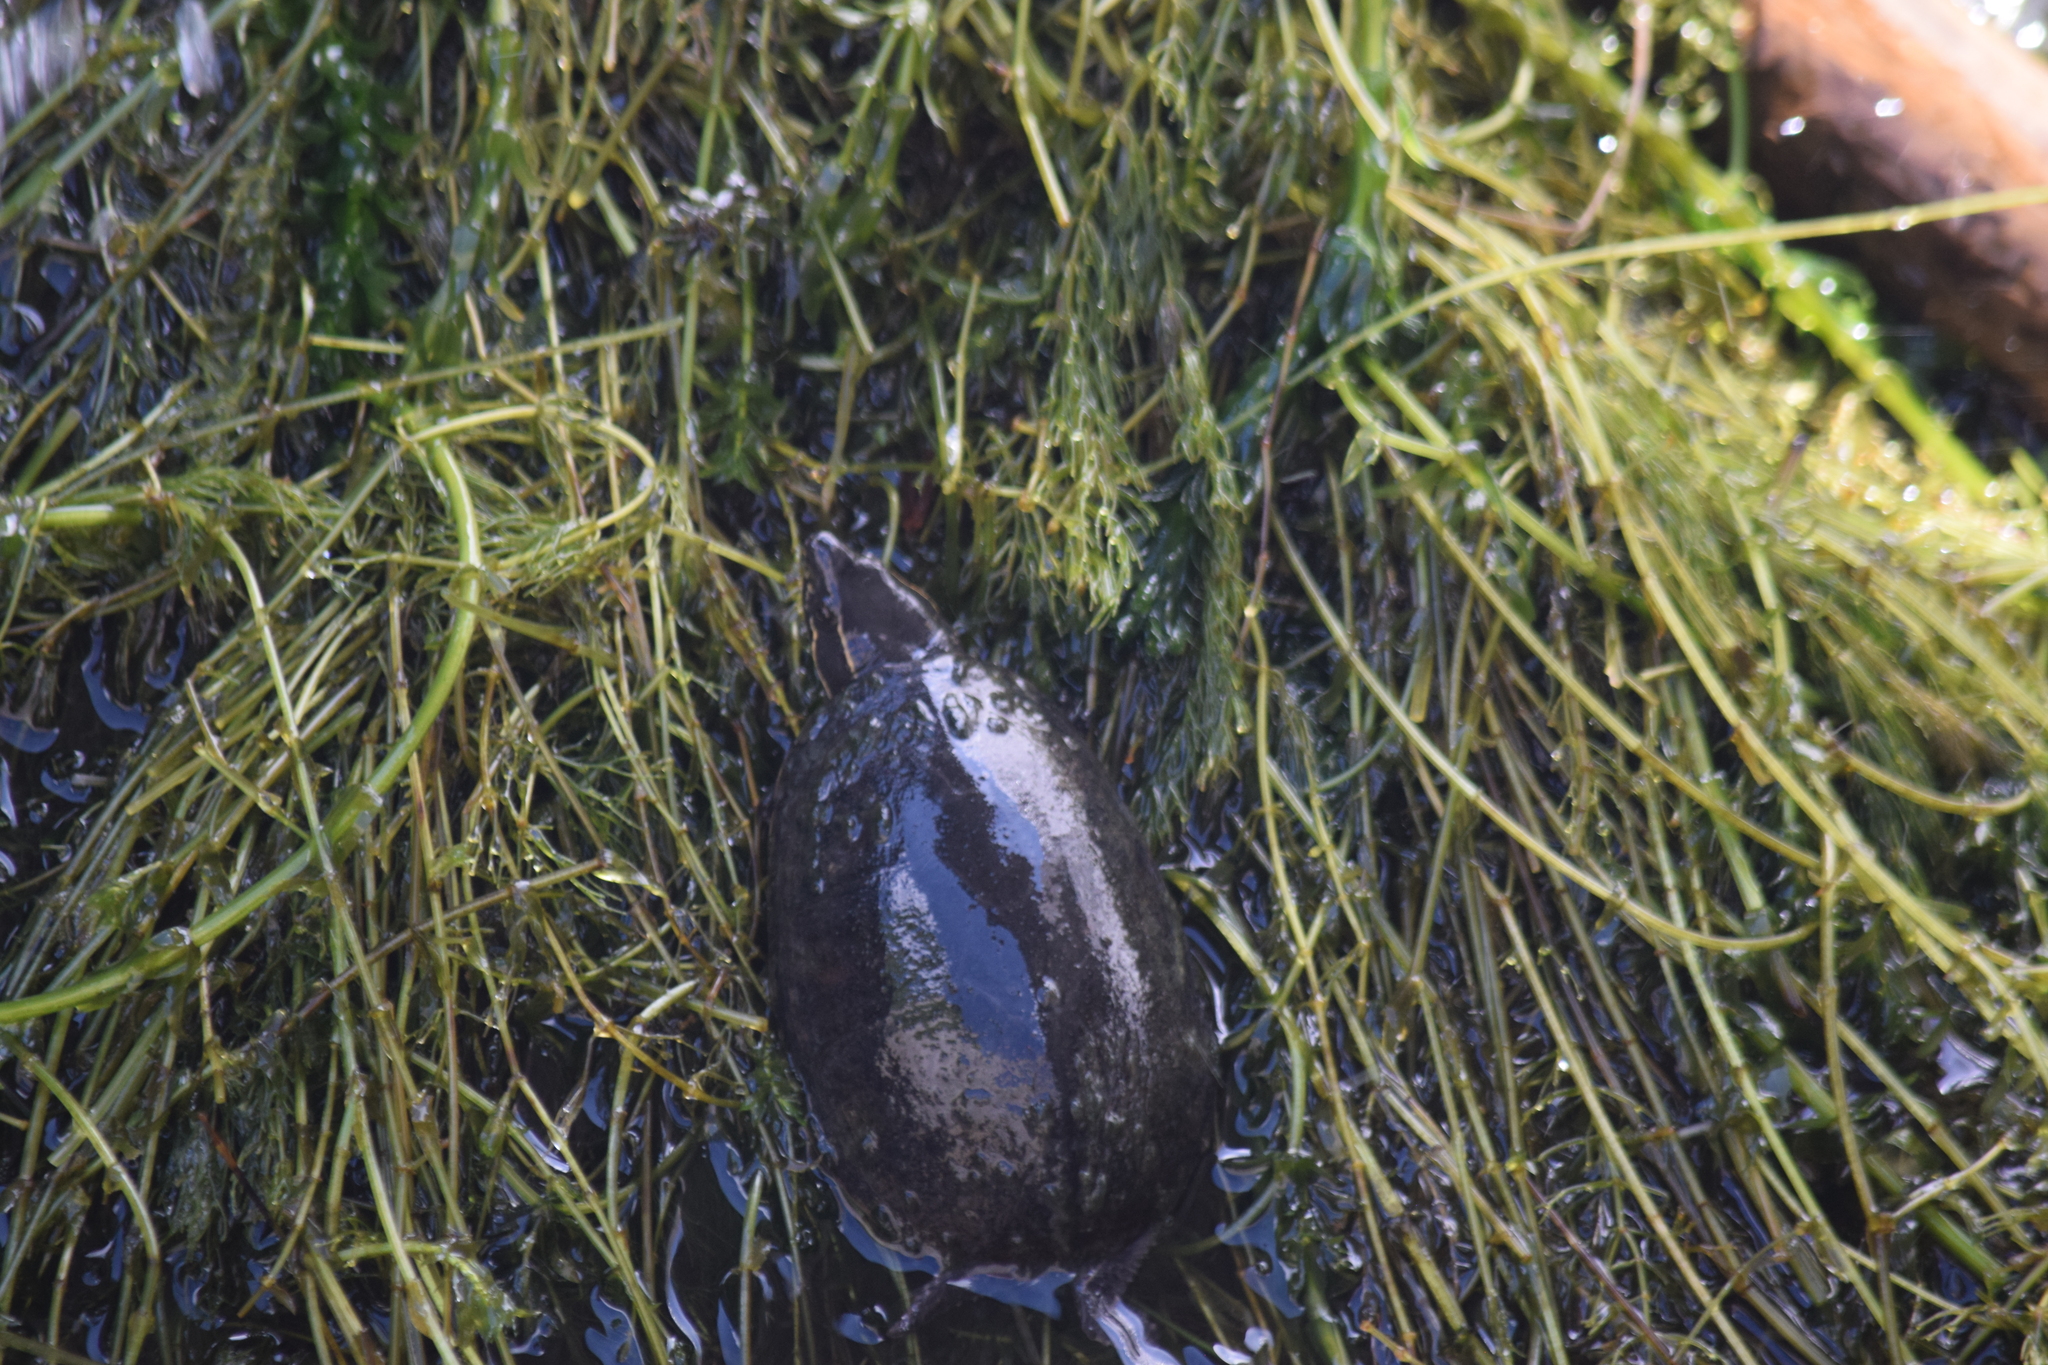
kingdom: Animalia
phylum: Chordata
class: Testudines
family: Kinosternidae
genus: Sternotherus
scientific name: Sternotherus odoratus
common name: Common musk turtle
